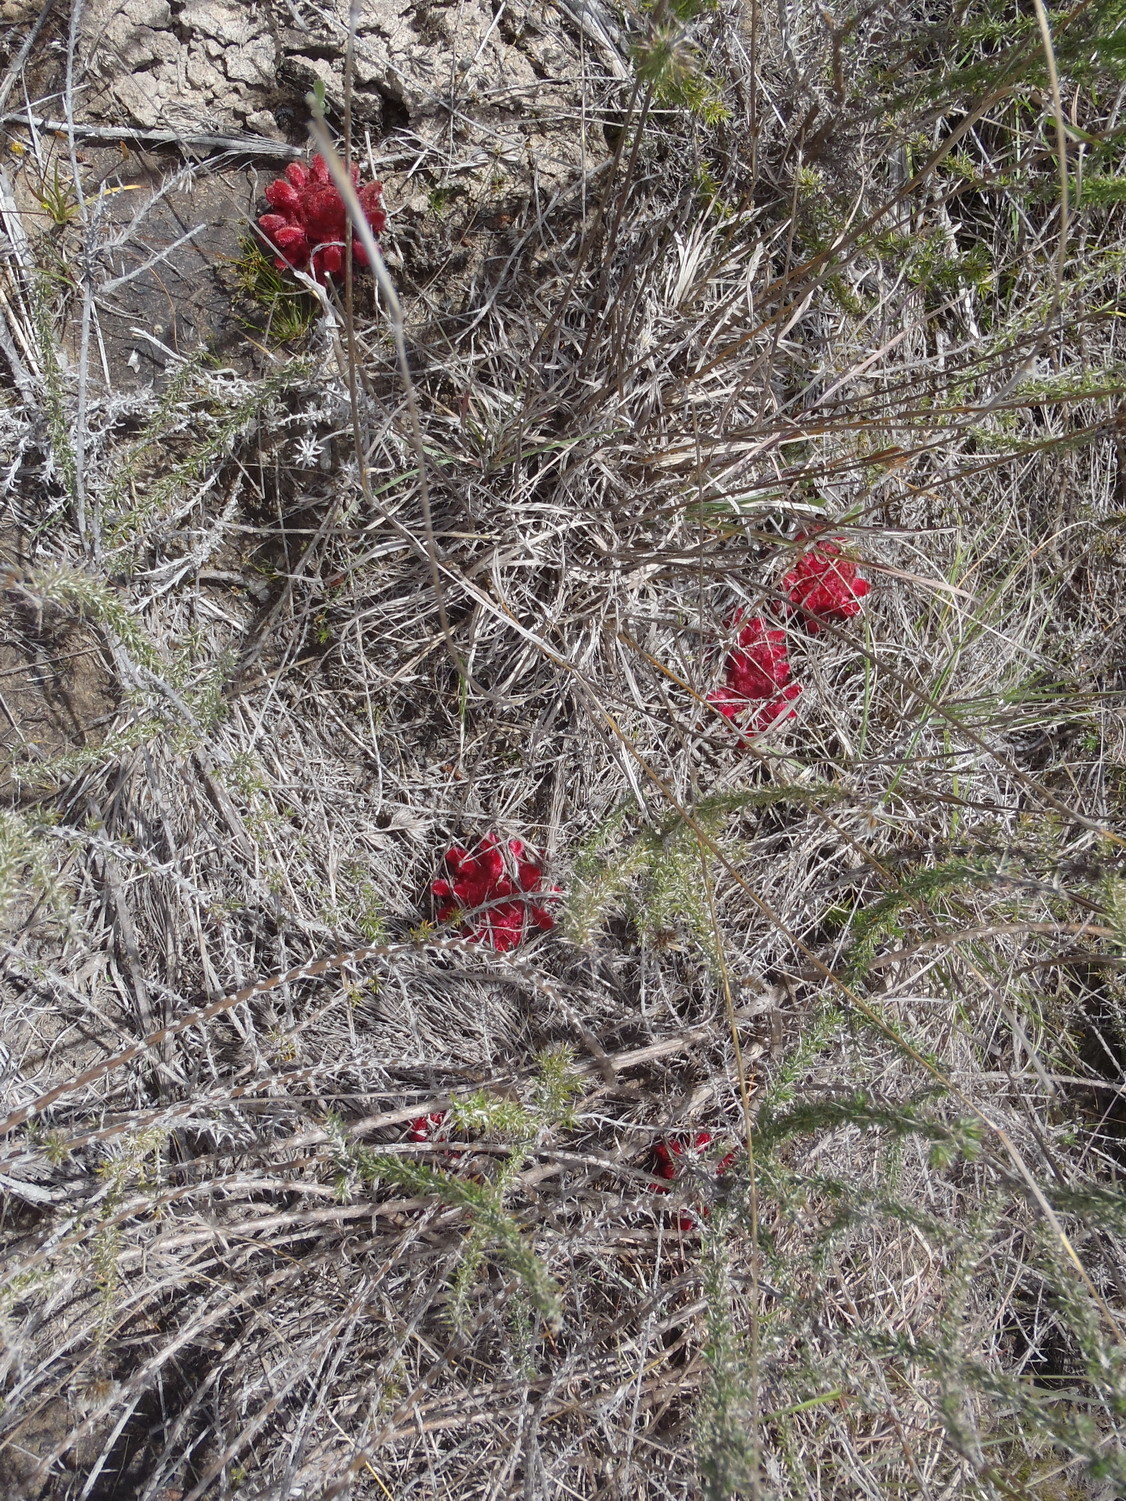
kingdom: Plantae
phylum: Tracheophyta
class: Magnoliopsida
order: Lamiales
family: Orobanchaceae
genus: Hyobanche
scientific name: Hyobanche sanguinea
